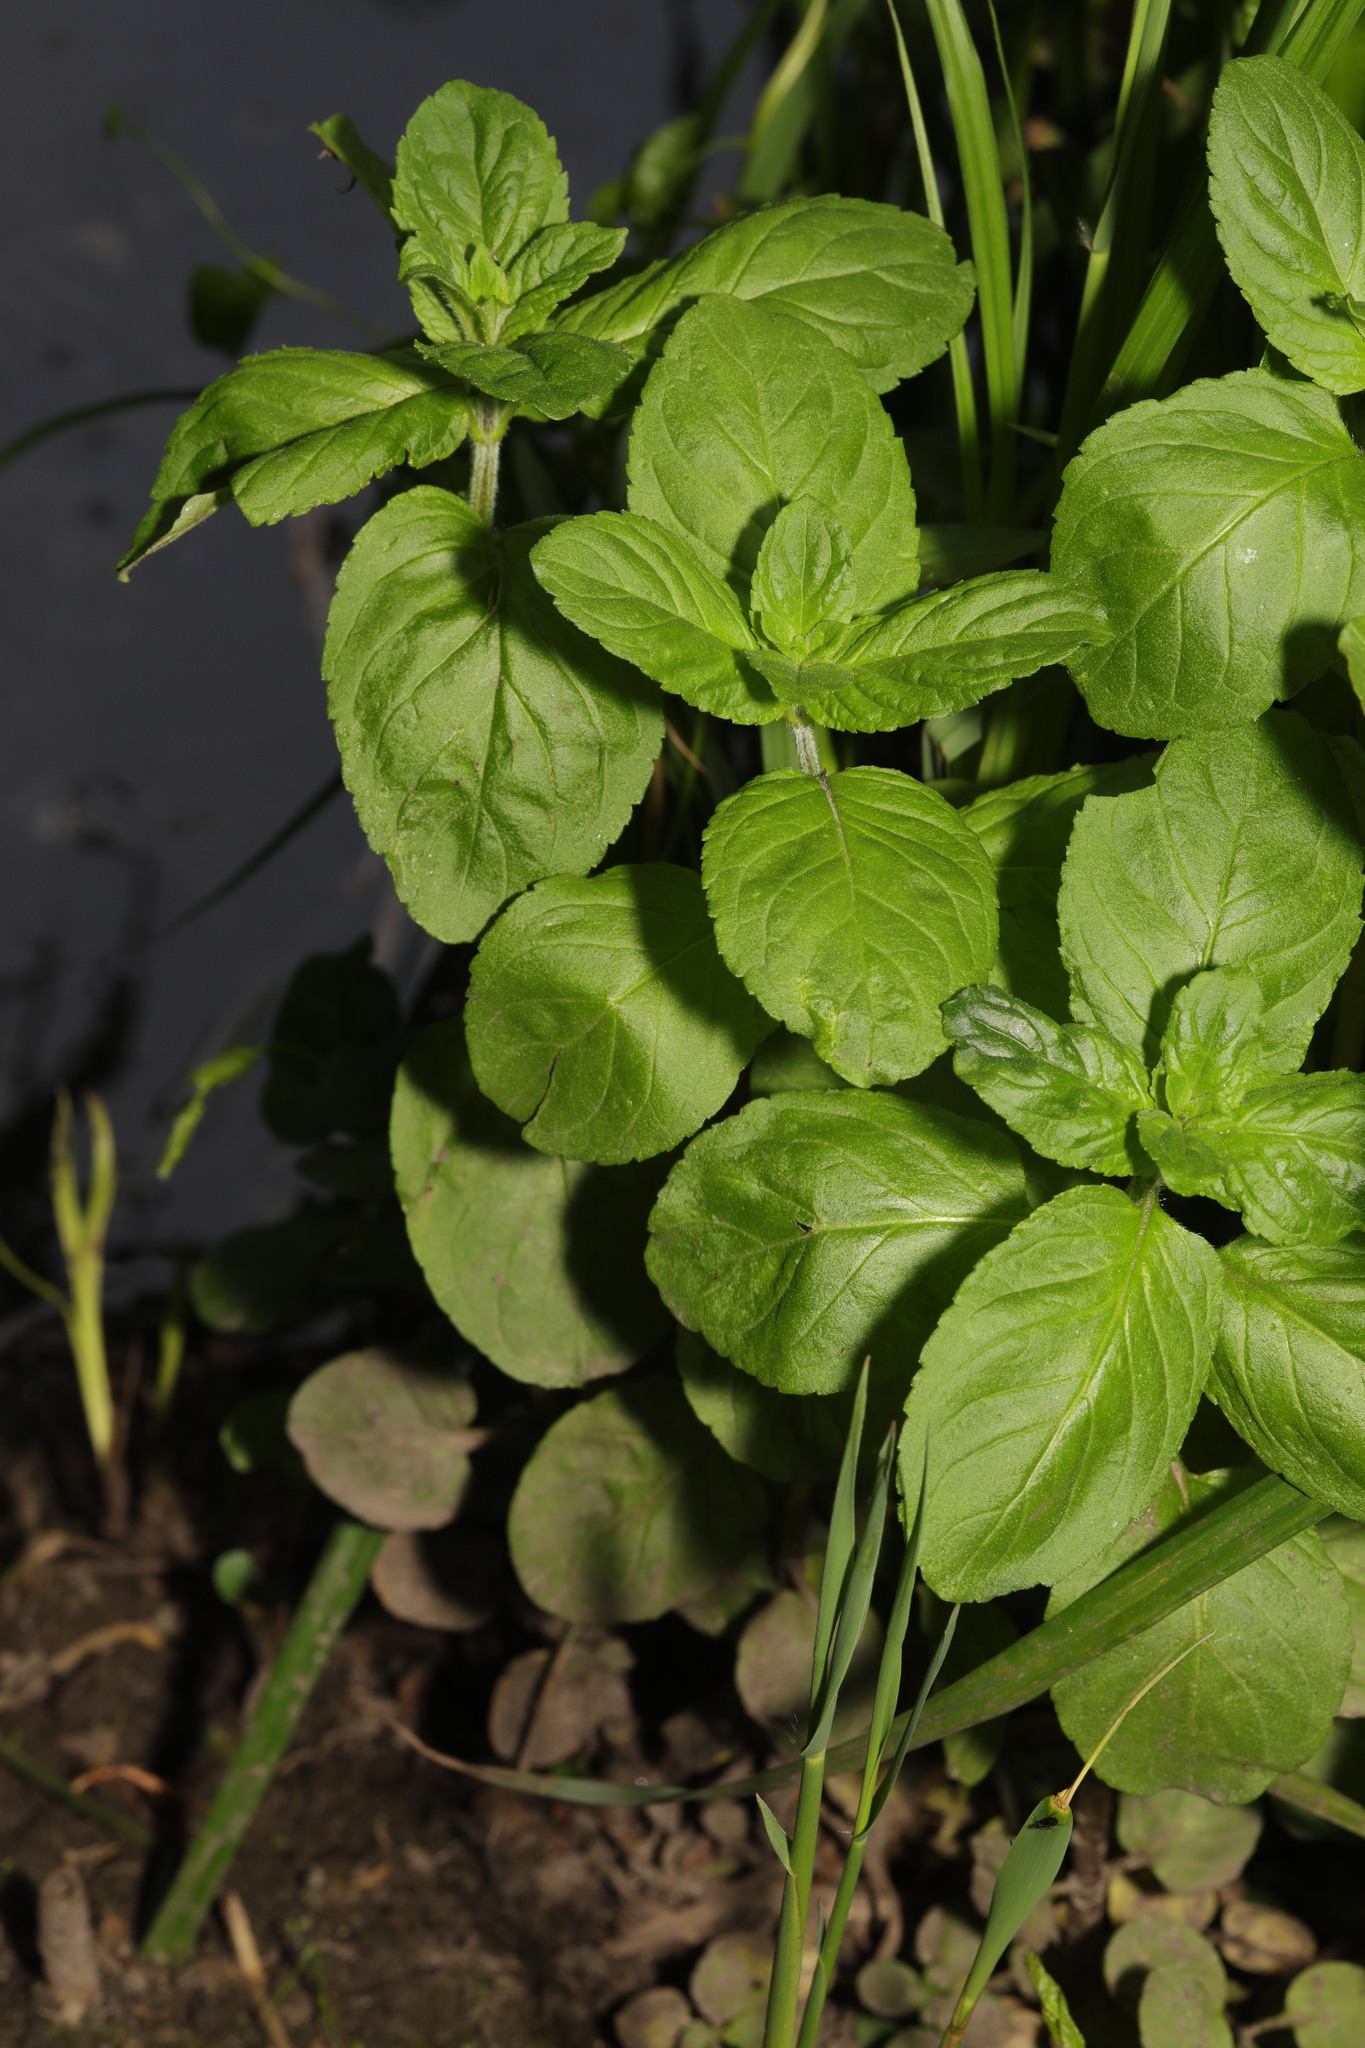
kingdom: Plantae
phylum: Tracheophyta
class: Magnoliopsida
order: Lamiales
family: Lamiaceae
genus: Mentha
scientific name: Mentha aquatica
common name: Water mint
